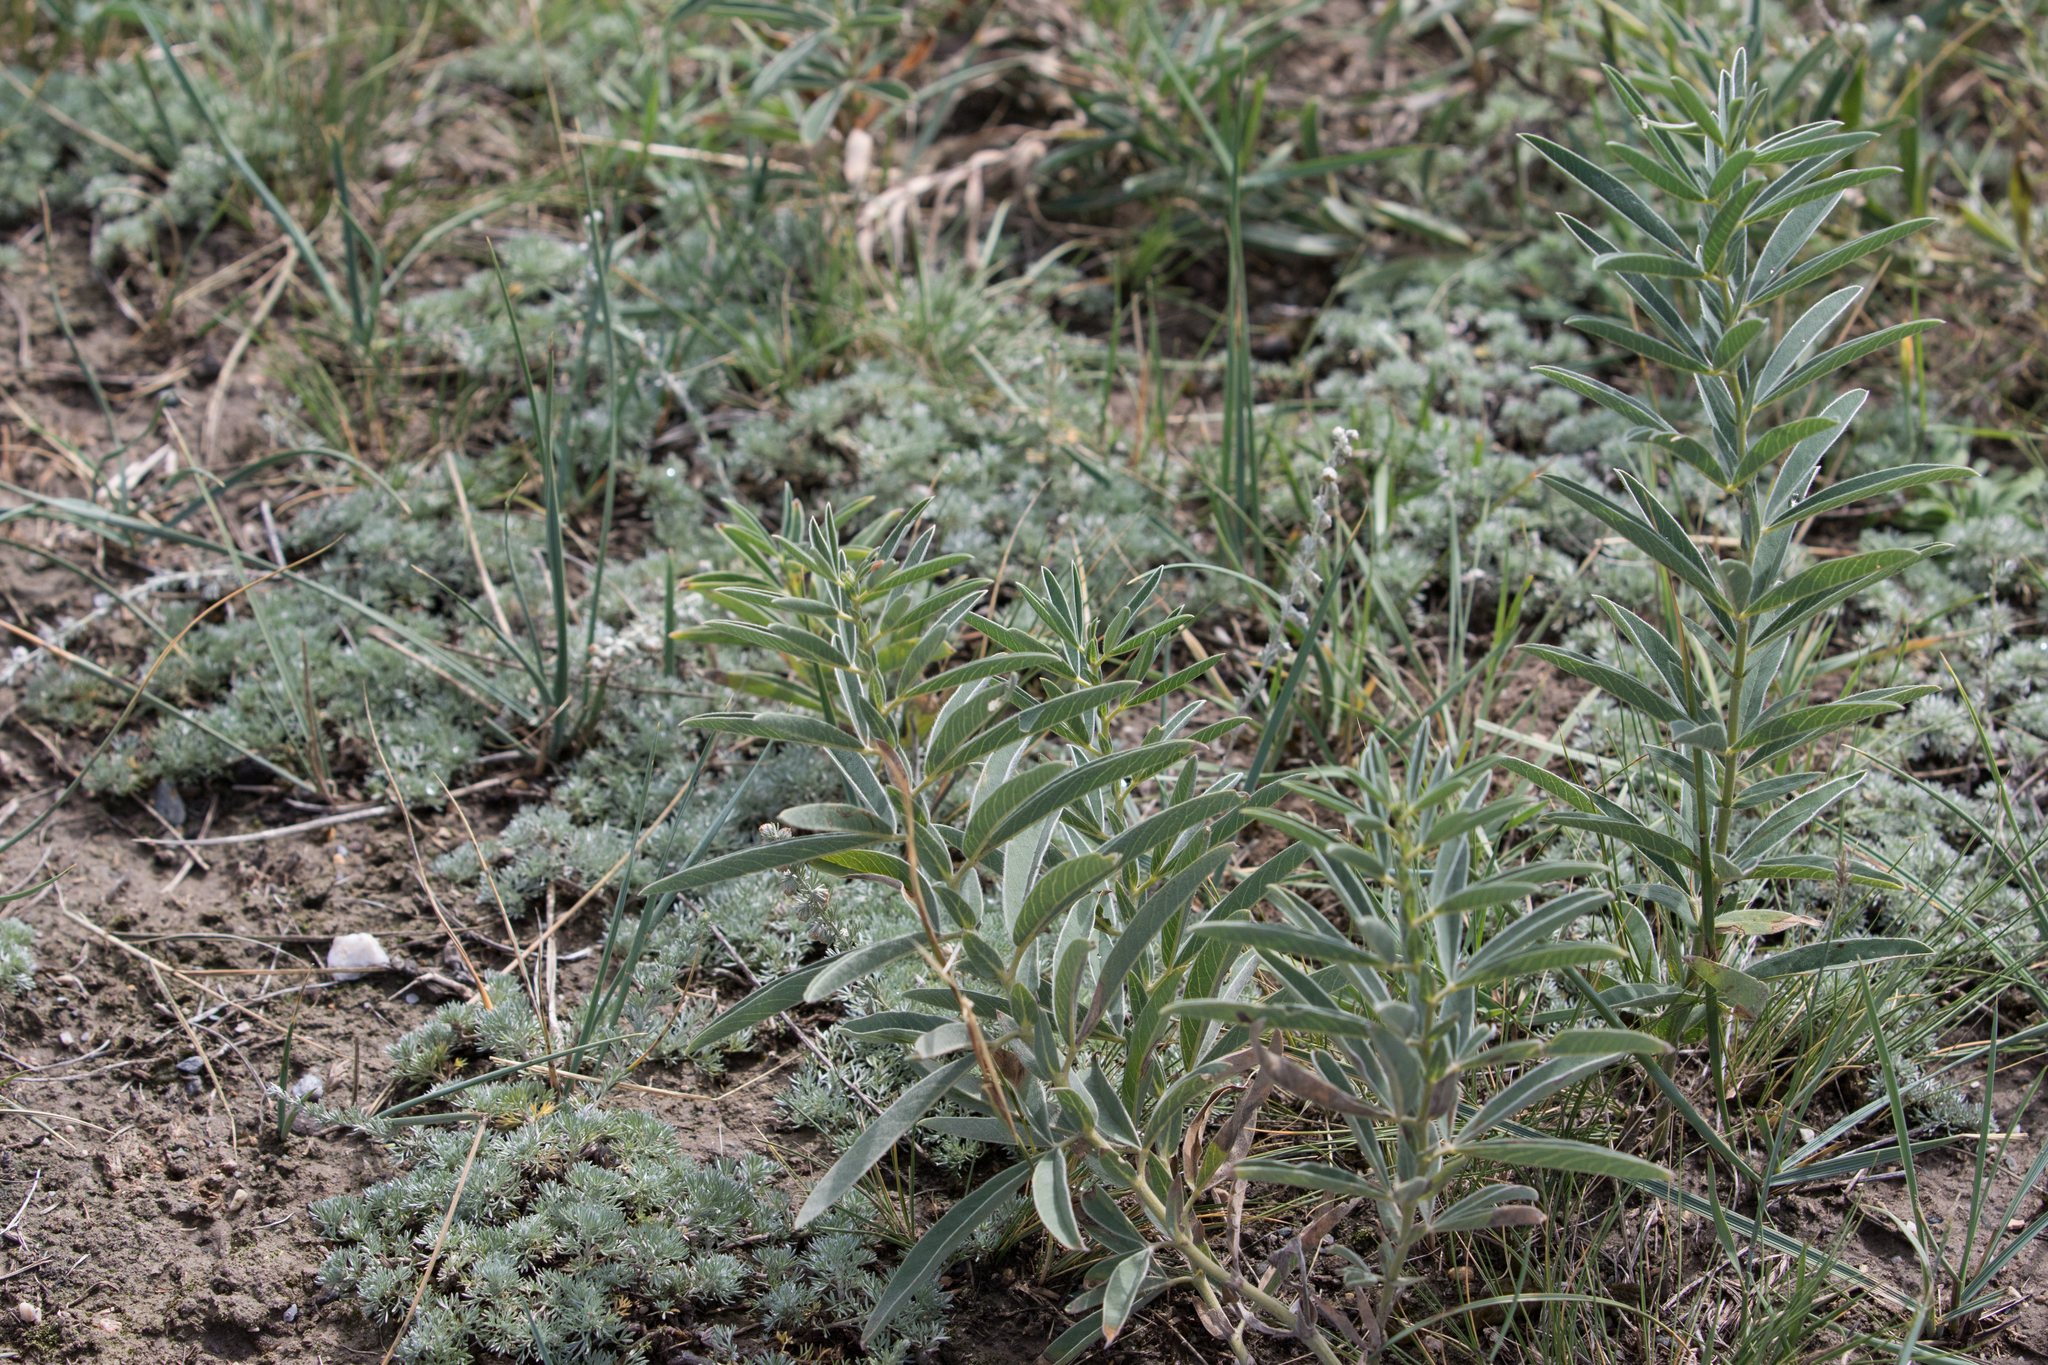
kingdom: Plantae
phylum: Tracheophyta
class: Magnoliopsida
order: Fabales
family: Fabaceae
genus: Thermopsis
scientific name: Thermopsis mongolica
